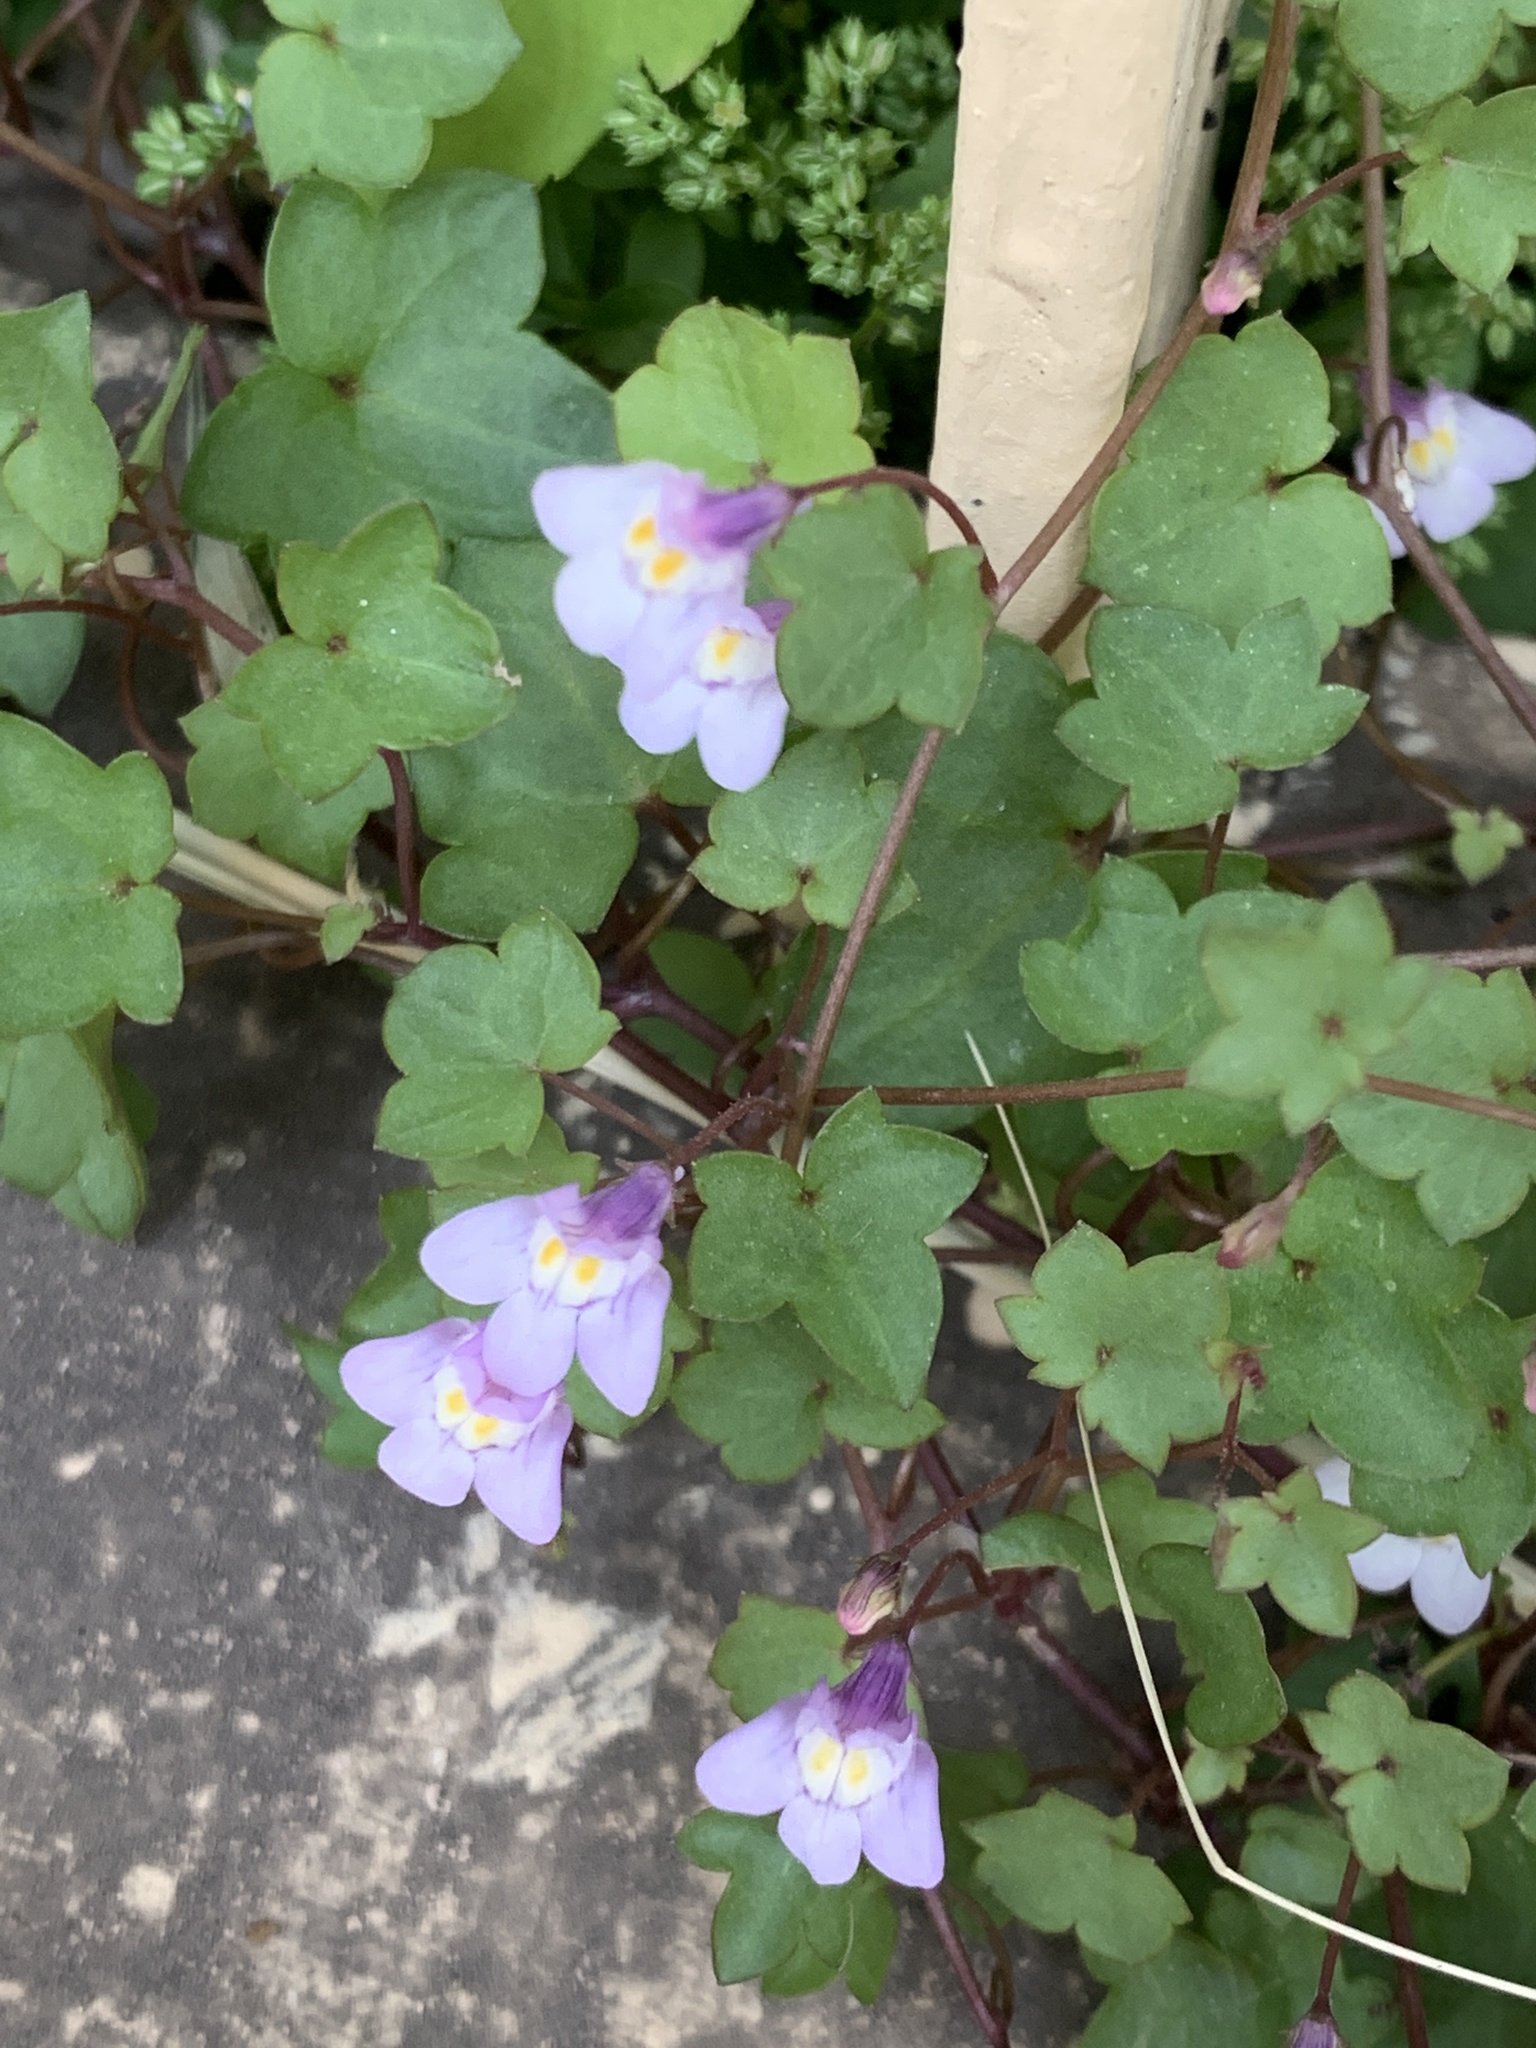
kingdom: Plantae
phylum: Tracheophyta
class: Magnoliopsida
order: Lamiales
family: Plantaginaceae
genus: Cymbalaria
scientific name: Cymbalaria muralis
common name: Ivy-leaved toadflax
